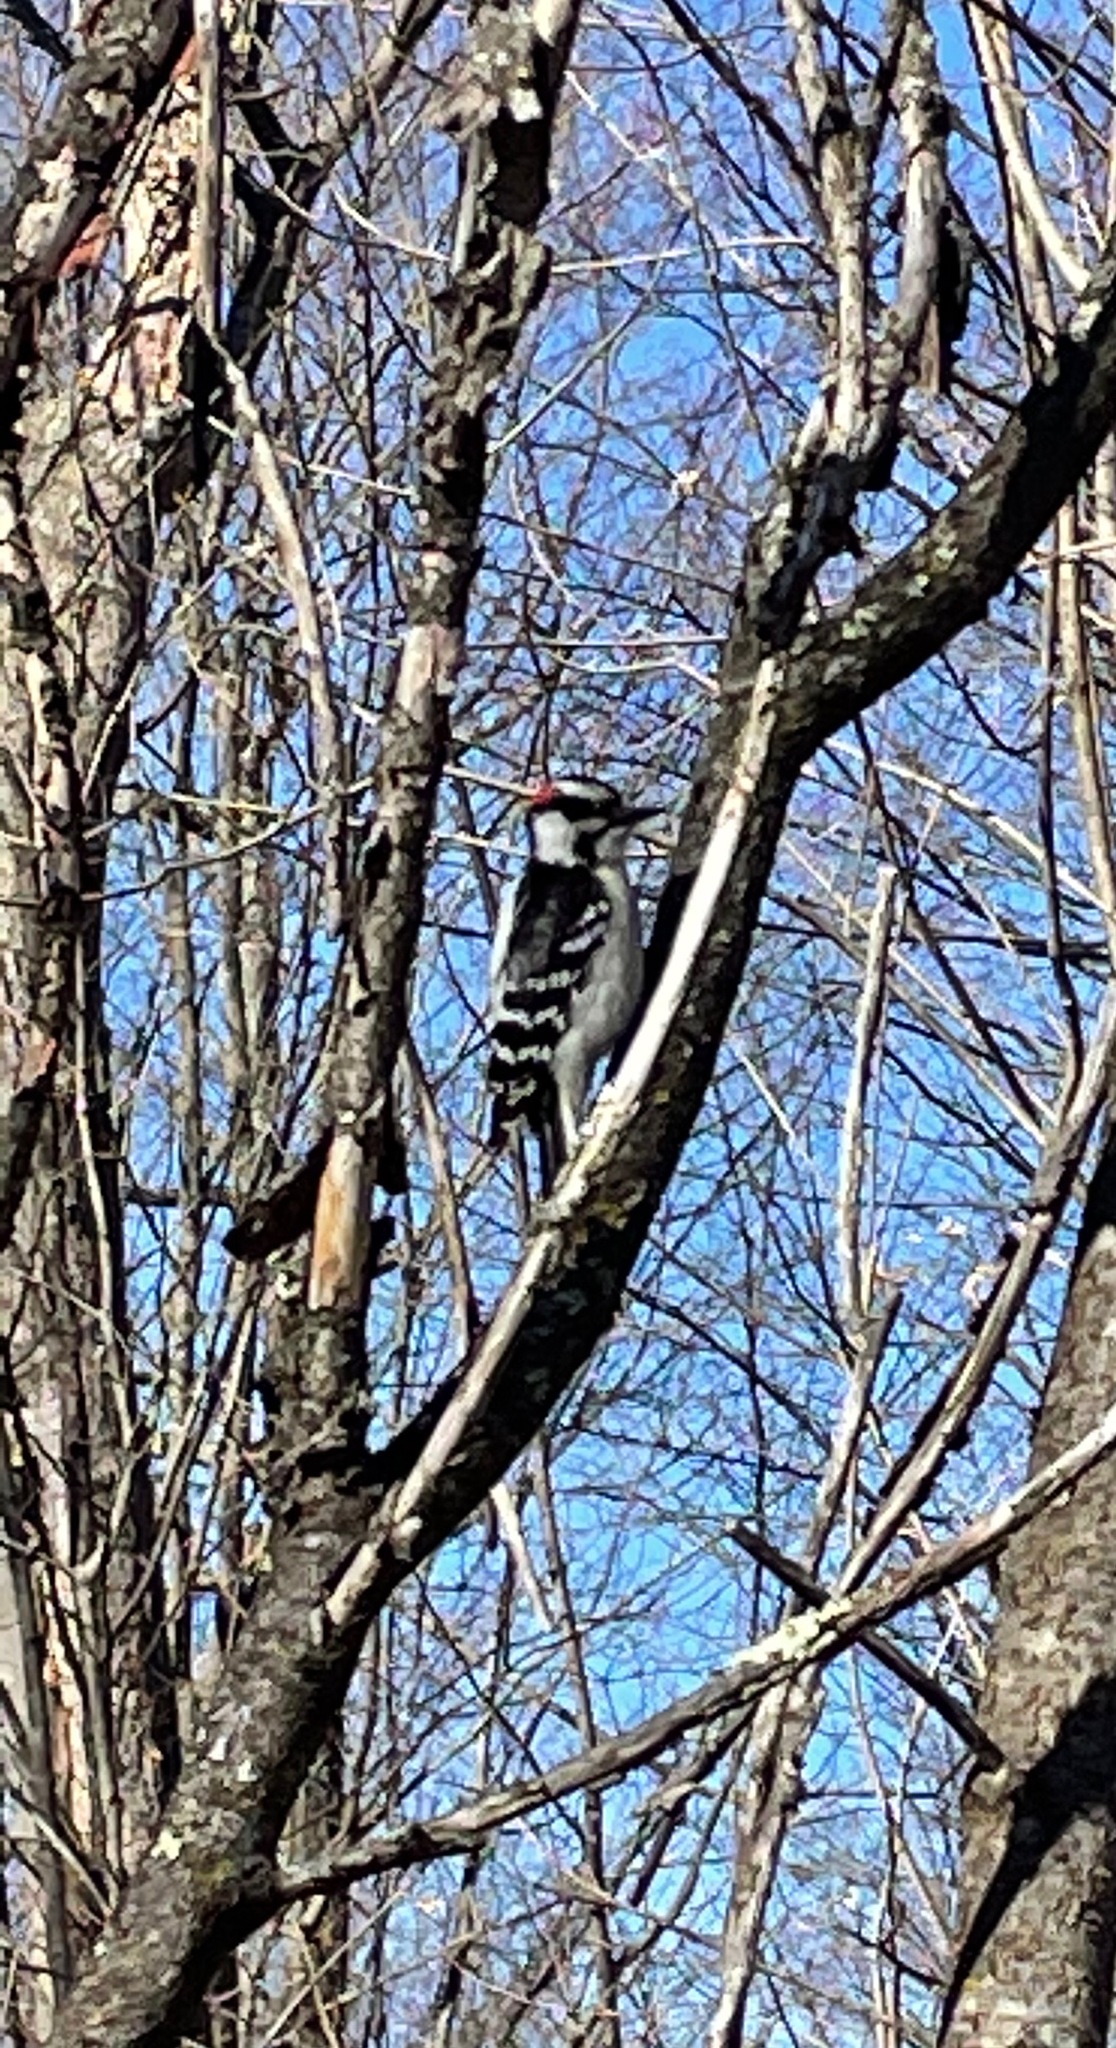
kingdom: Animalia
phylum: Chordata
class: Aves
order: Piciformes
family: Picidae
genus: Dryobates
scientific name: Dryobates pubescens
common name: Downy woodpecker
